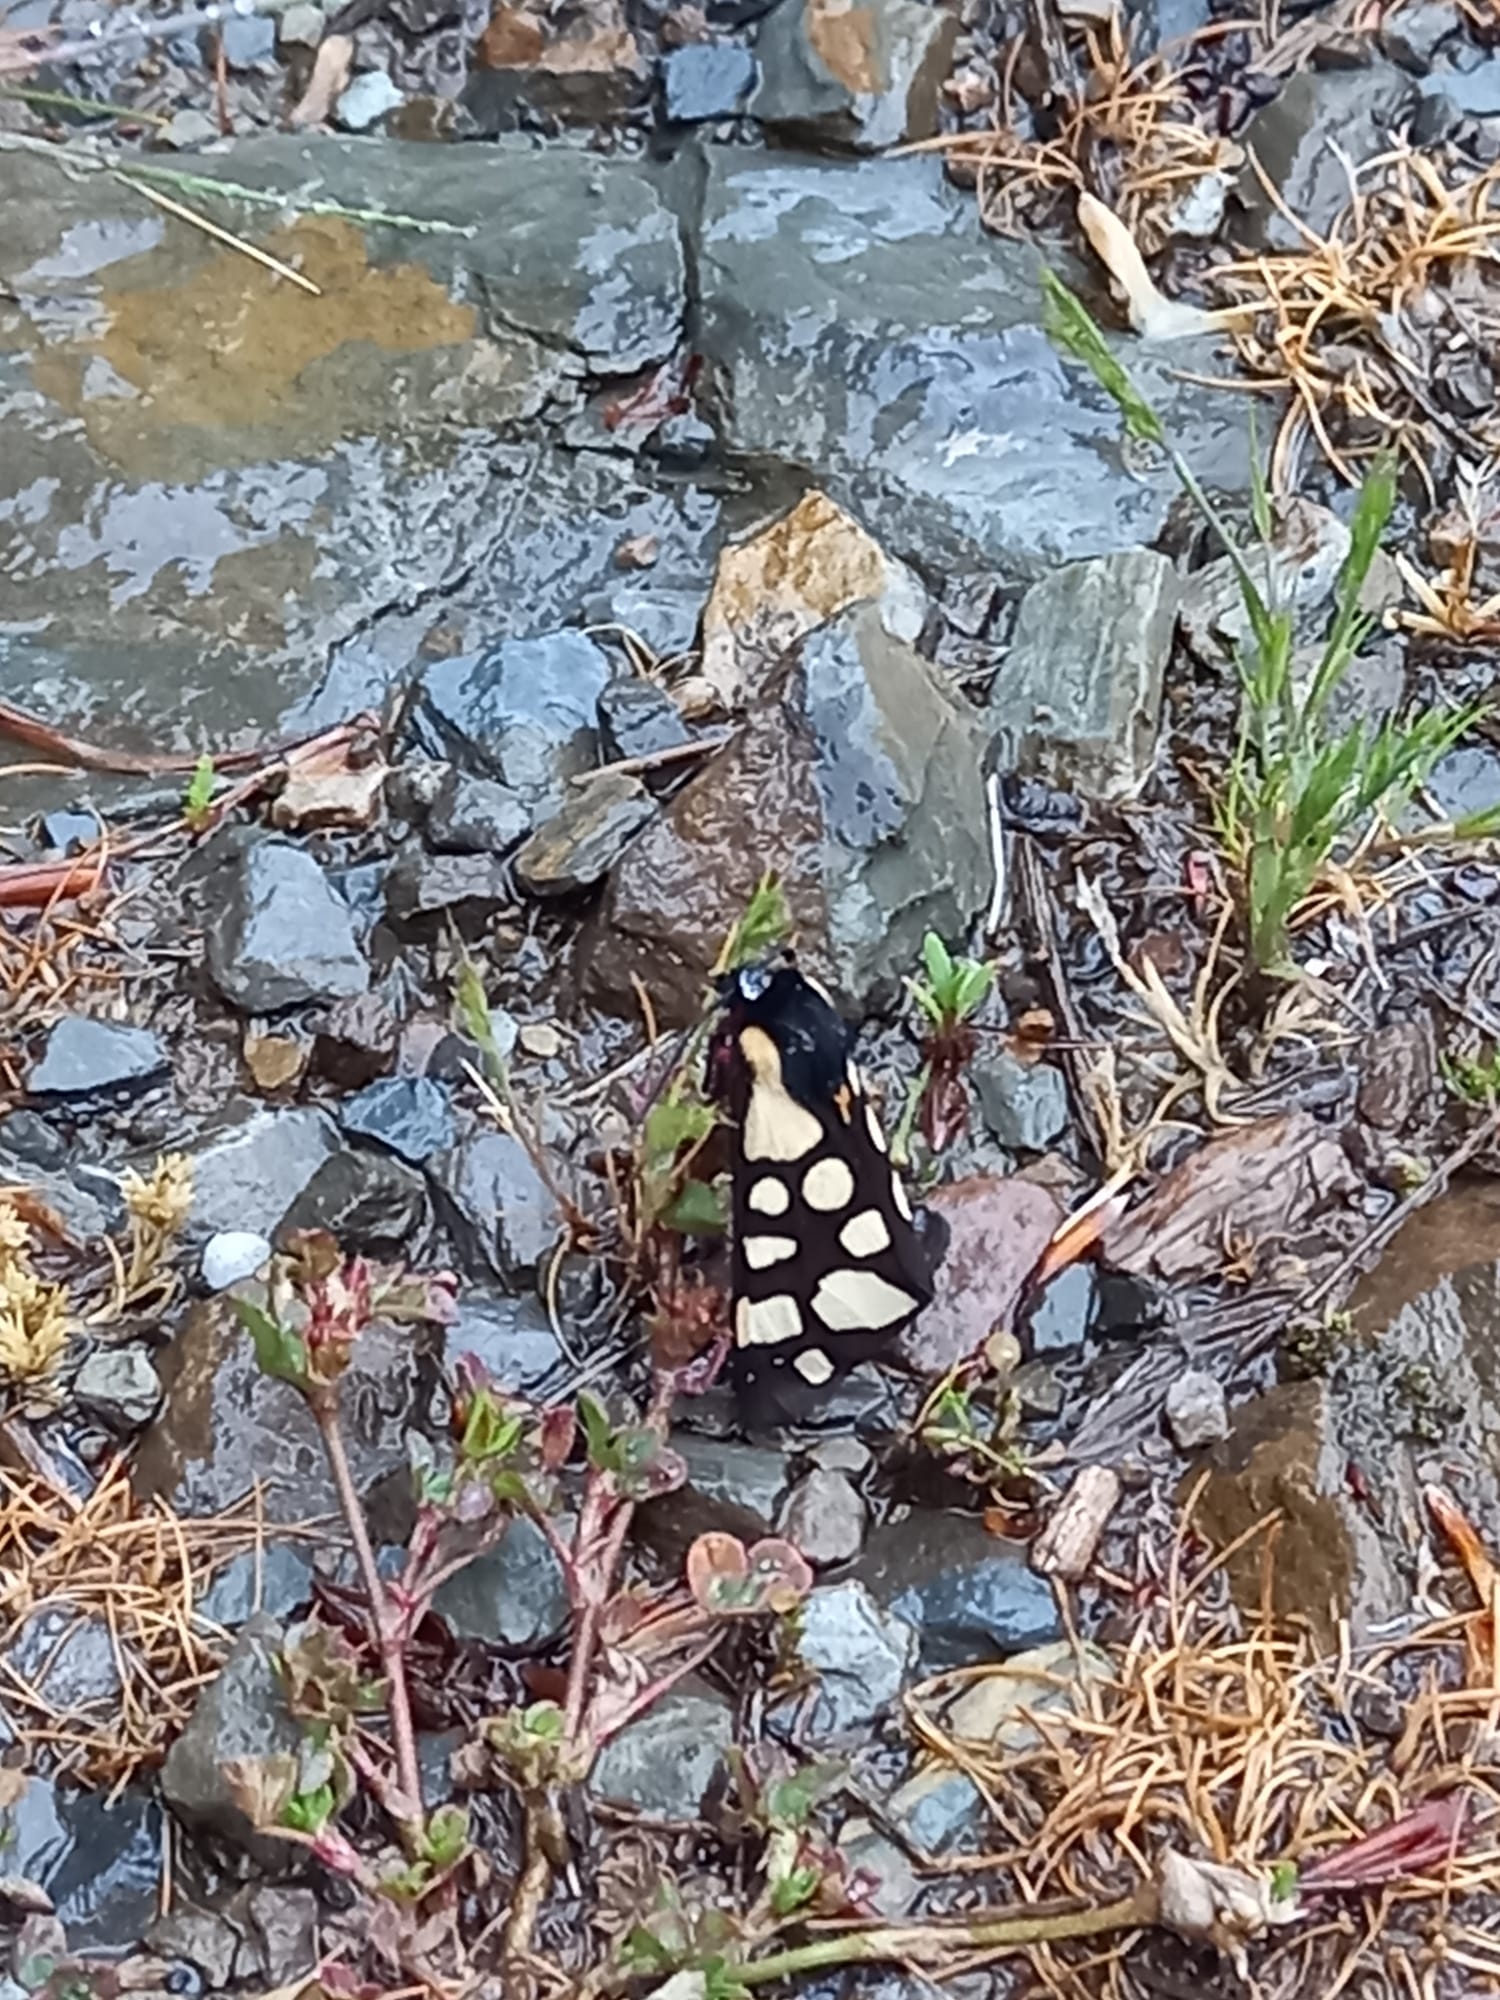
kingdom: Animalia
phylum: Arthropoda
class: Insecta
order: Lepidoptera
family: Erebidae
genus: Epicallia
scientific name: Epicallia villica
